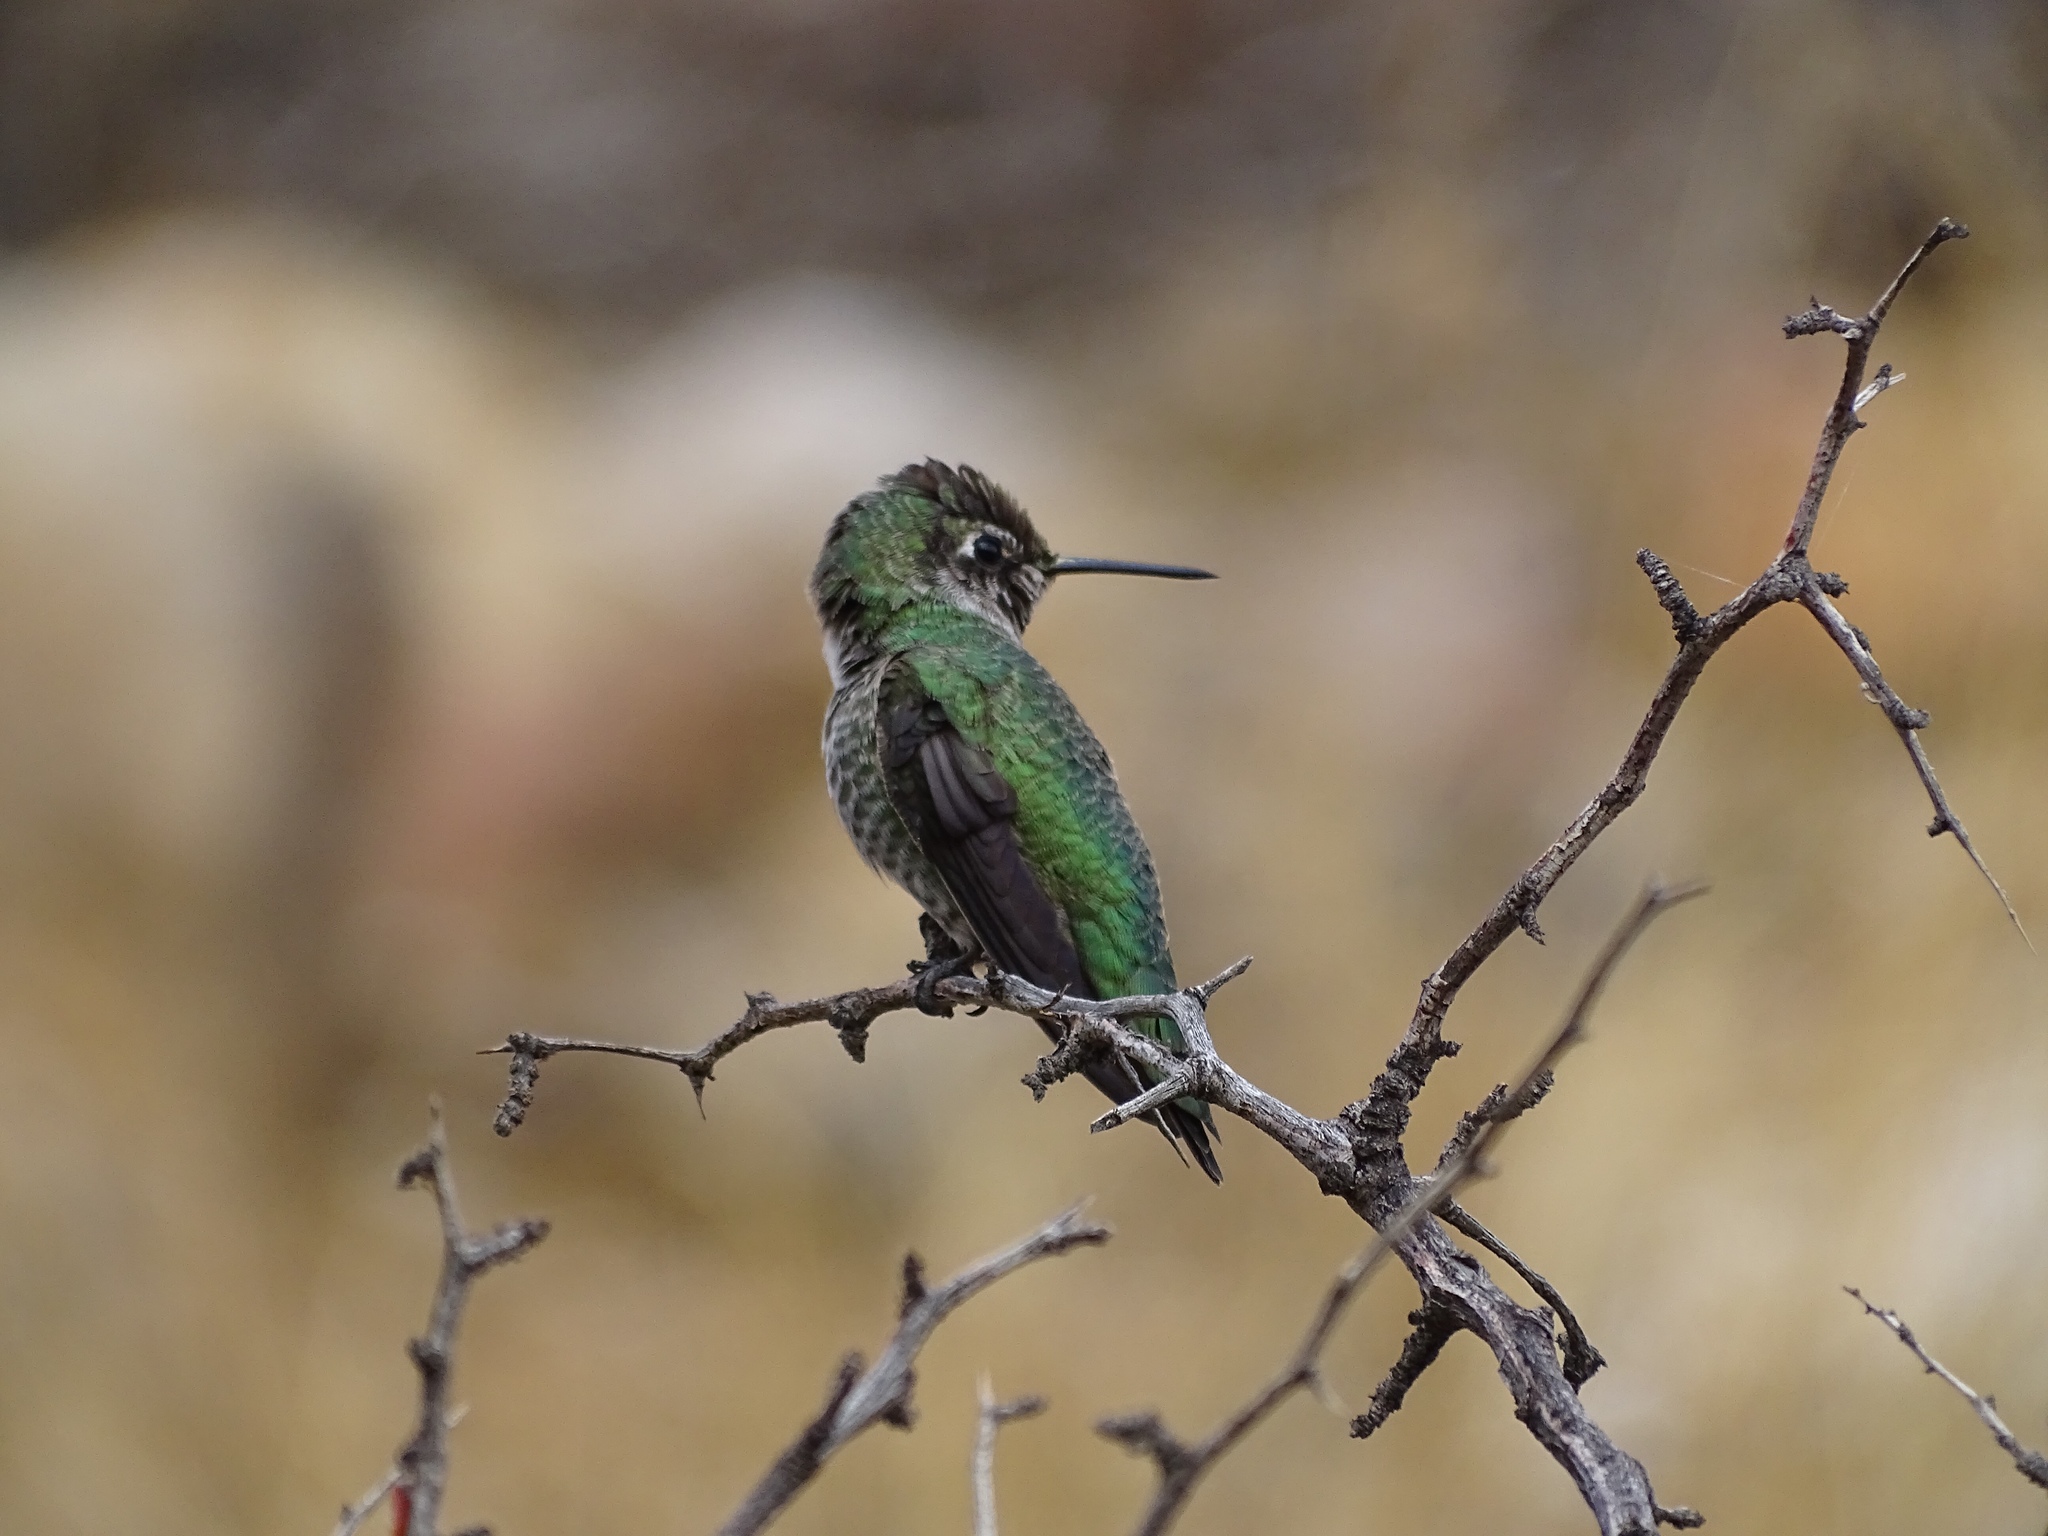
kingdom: Animalia
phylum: Chordata
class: Aves
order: Apodiformes
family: Trochilidae
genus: Calypte
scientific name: Calypte anna
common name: Anna's hummingbird
